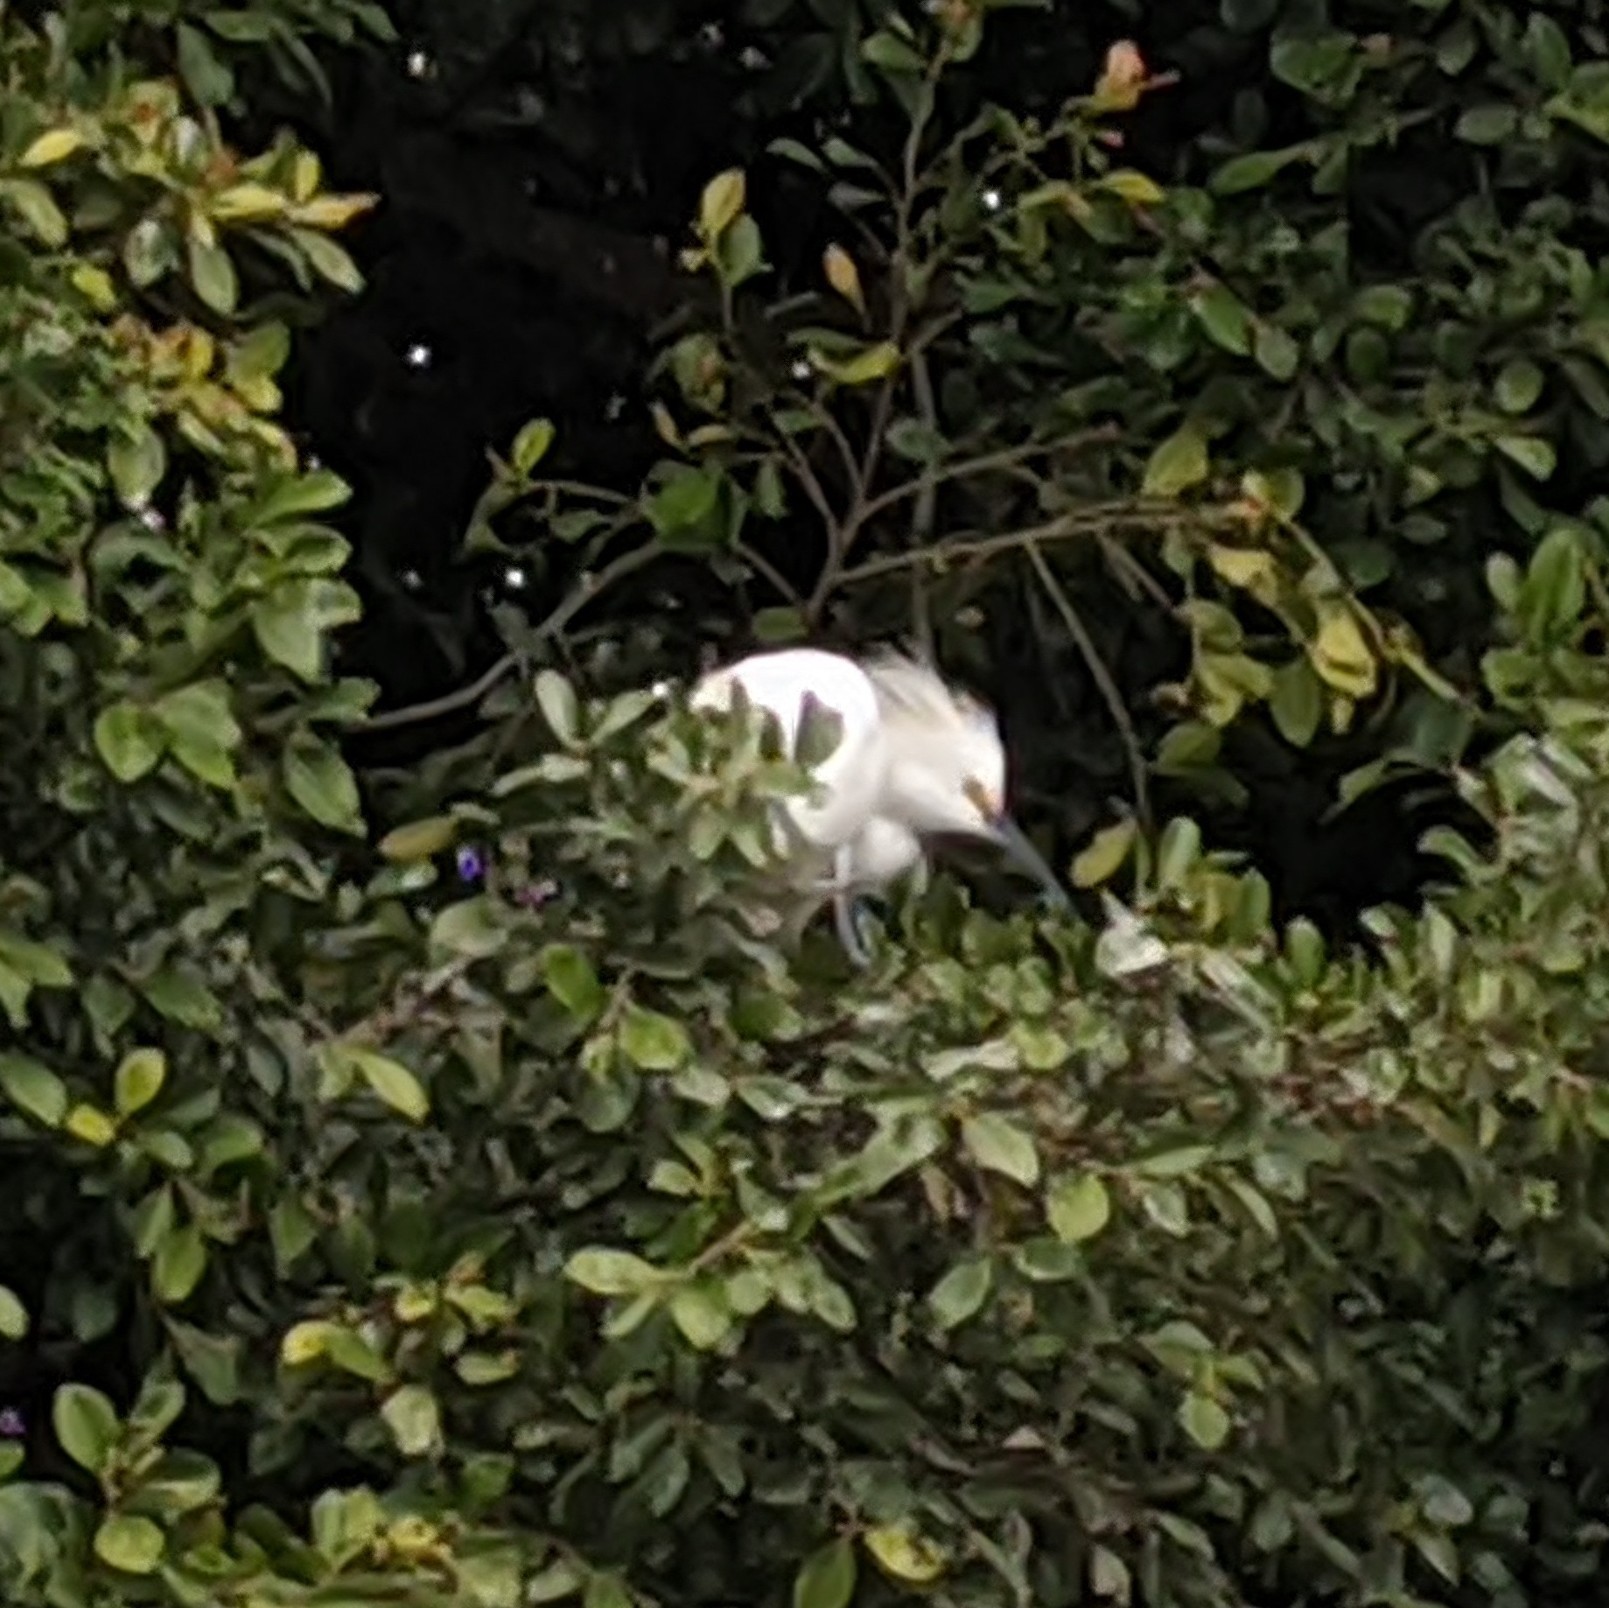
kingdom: Animalia
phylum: Chordata
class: Aves
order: Pelecaniformes
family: Ardeidae
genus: Egretta
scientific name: Egretta thula
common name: Snowy egret
